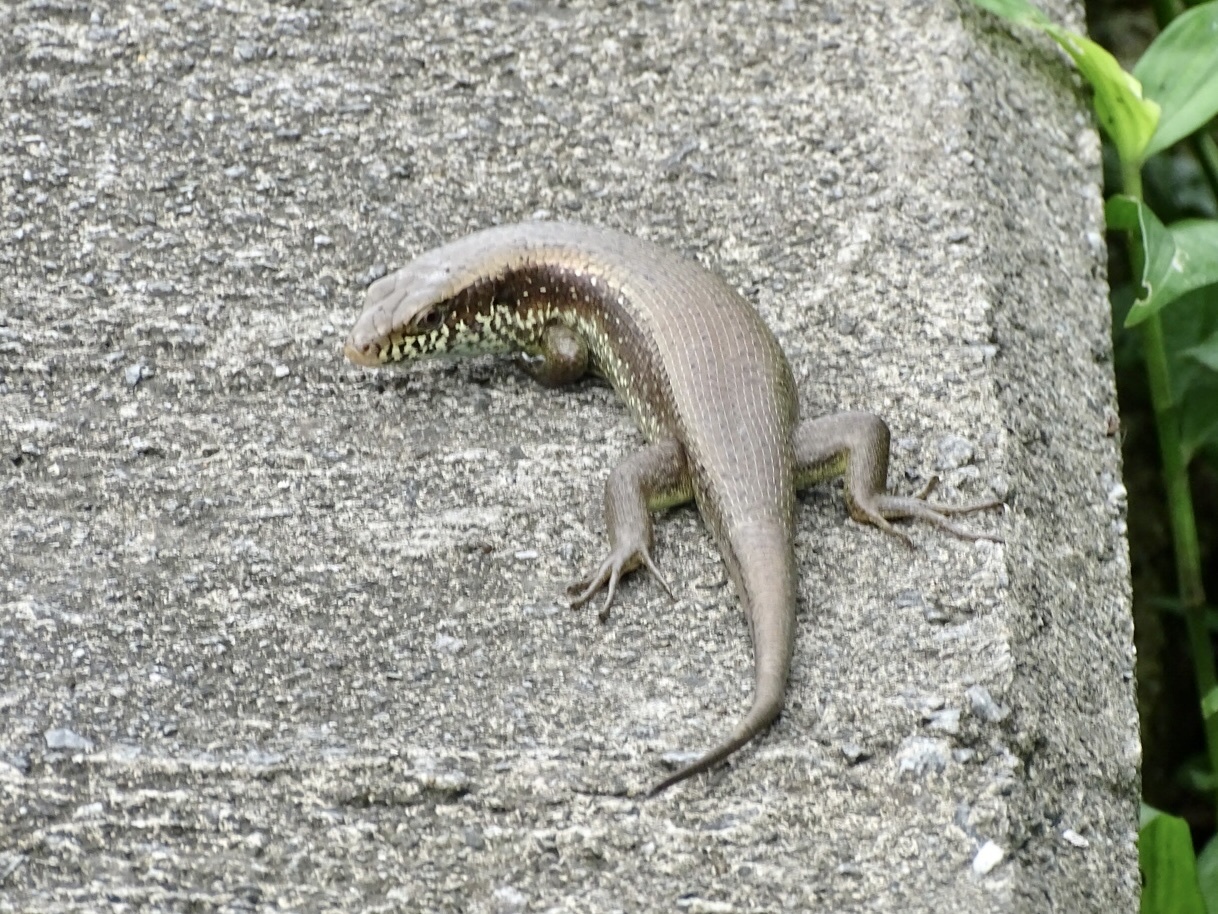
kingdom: Animalia
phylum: Chordata
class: Squamata
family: Scincidae
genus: Eutropis
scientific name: Eutropis longicaudata
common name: Long-tailed sun skink
